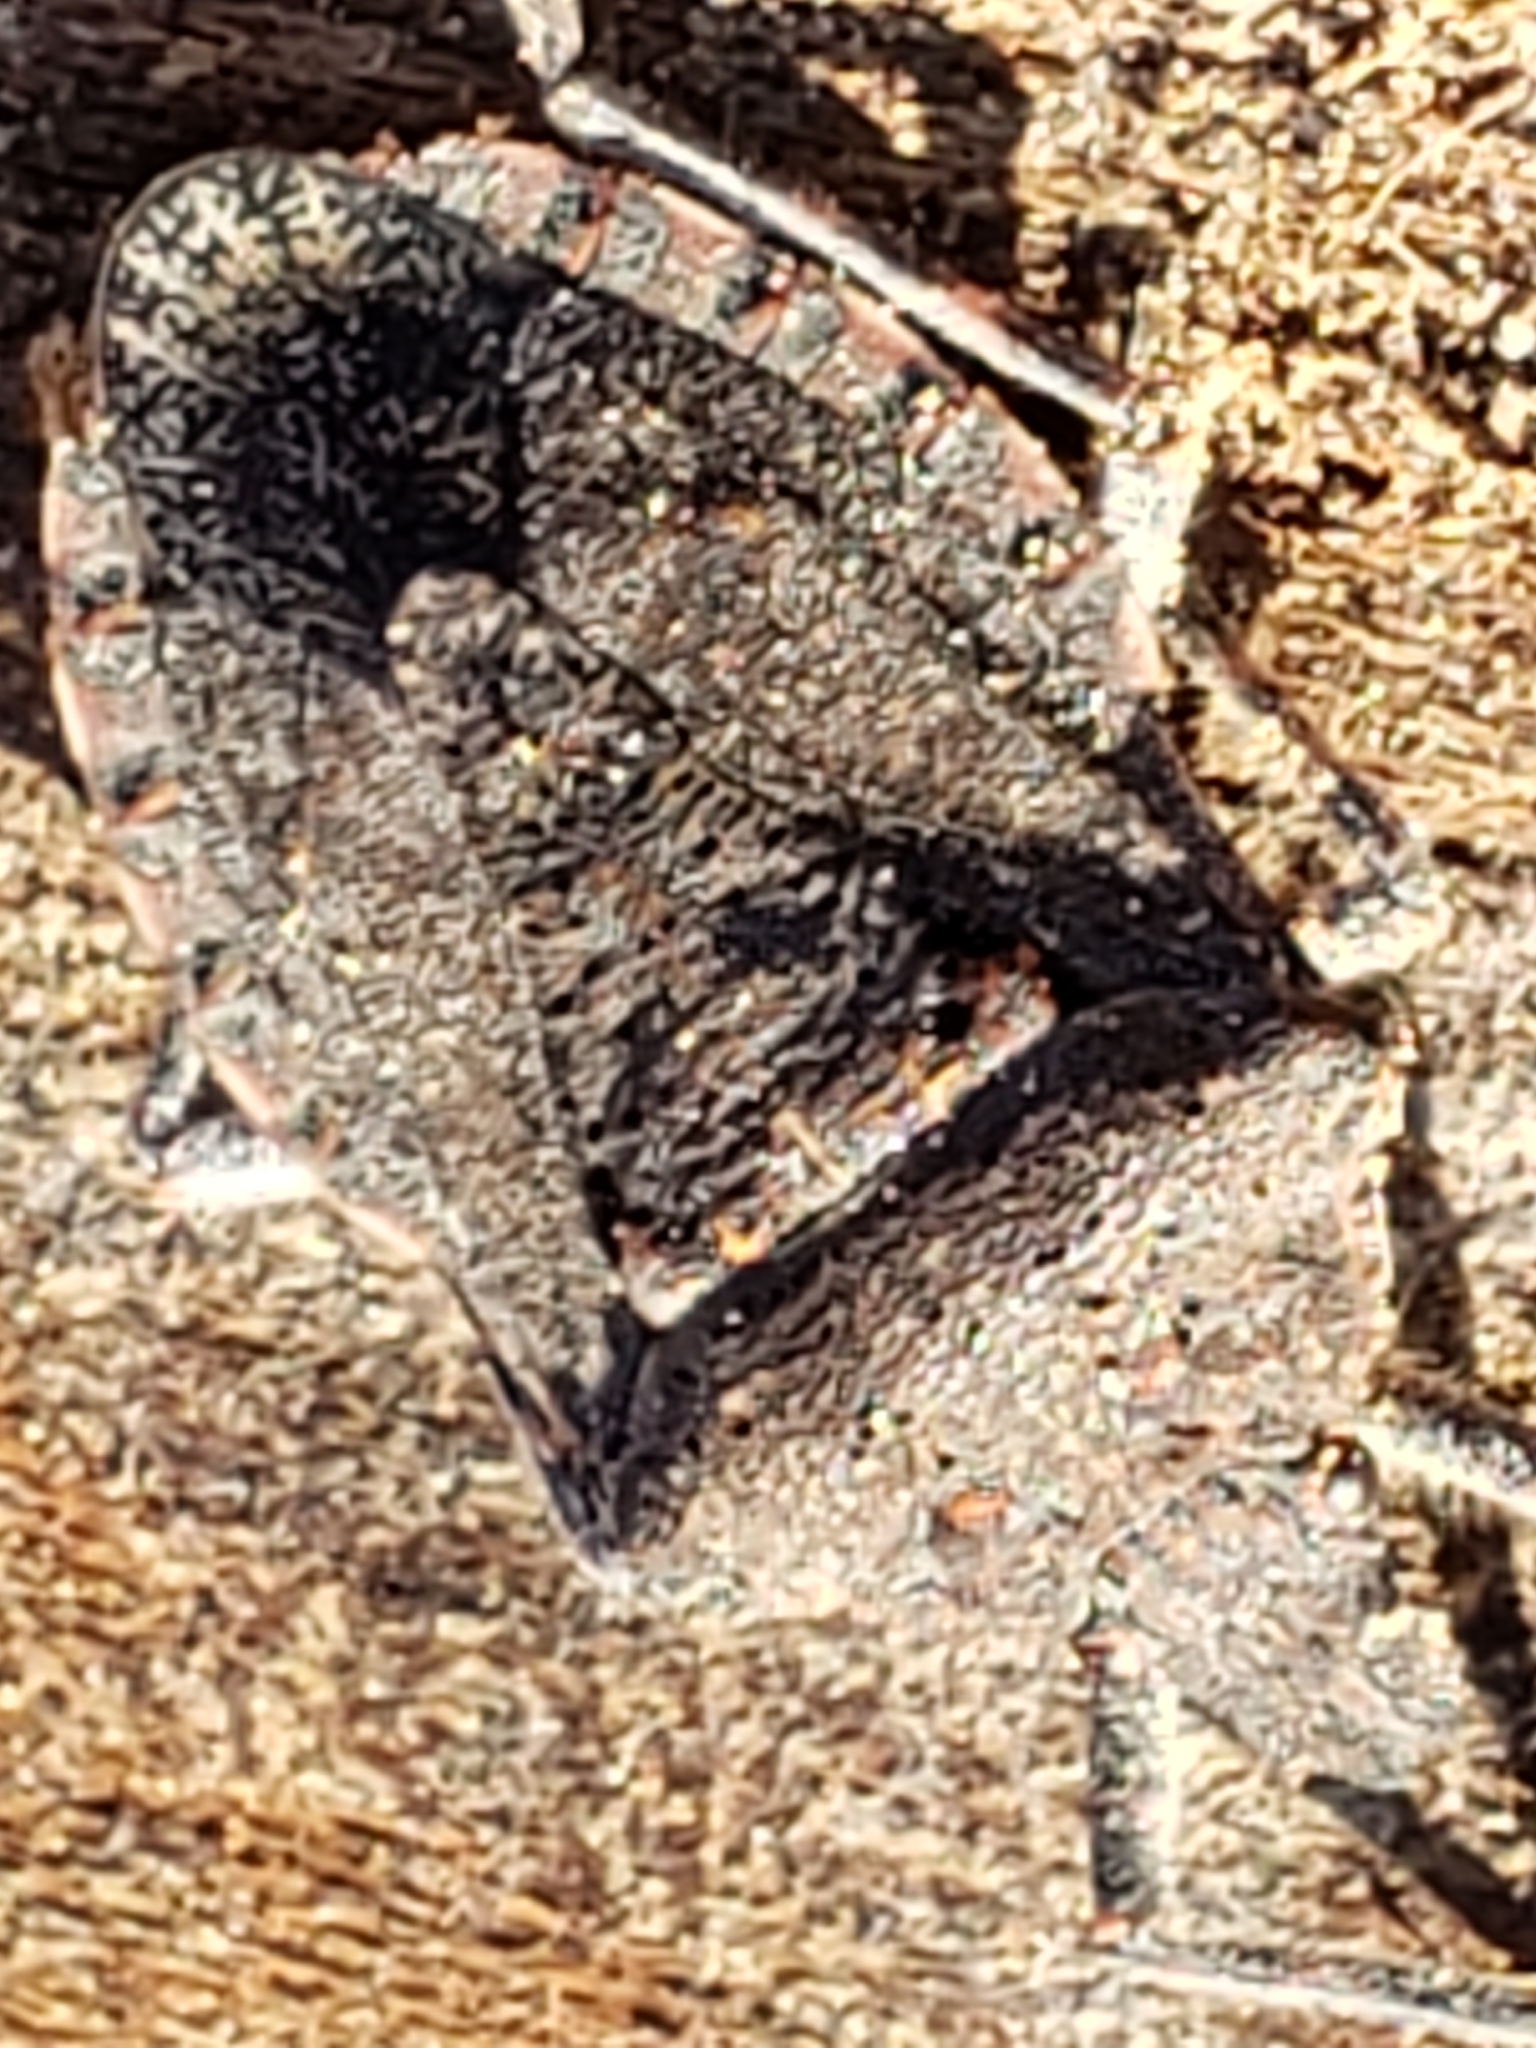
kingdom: Animalia
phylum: Arthropoda
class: Insecta
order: Hemiptera
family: Pentatomidae
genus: Brochymena
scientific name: Brochymena quadripustulata
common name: Four-humped stink bug
